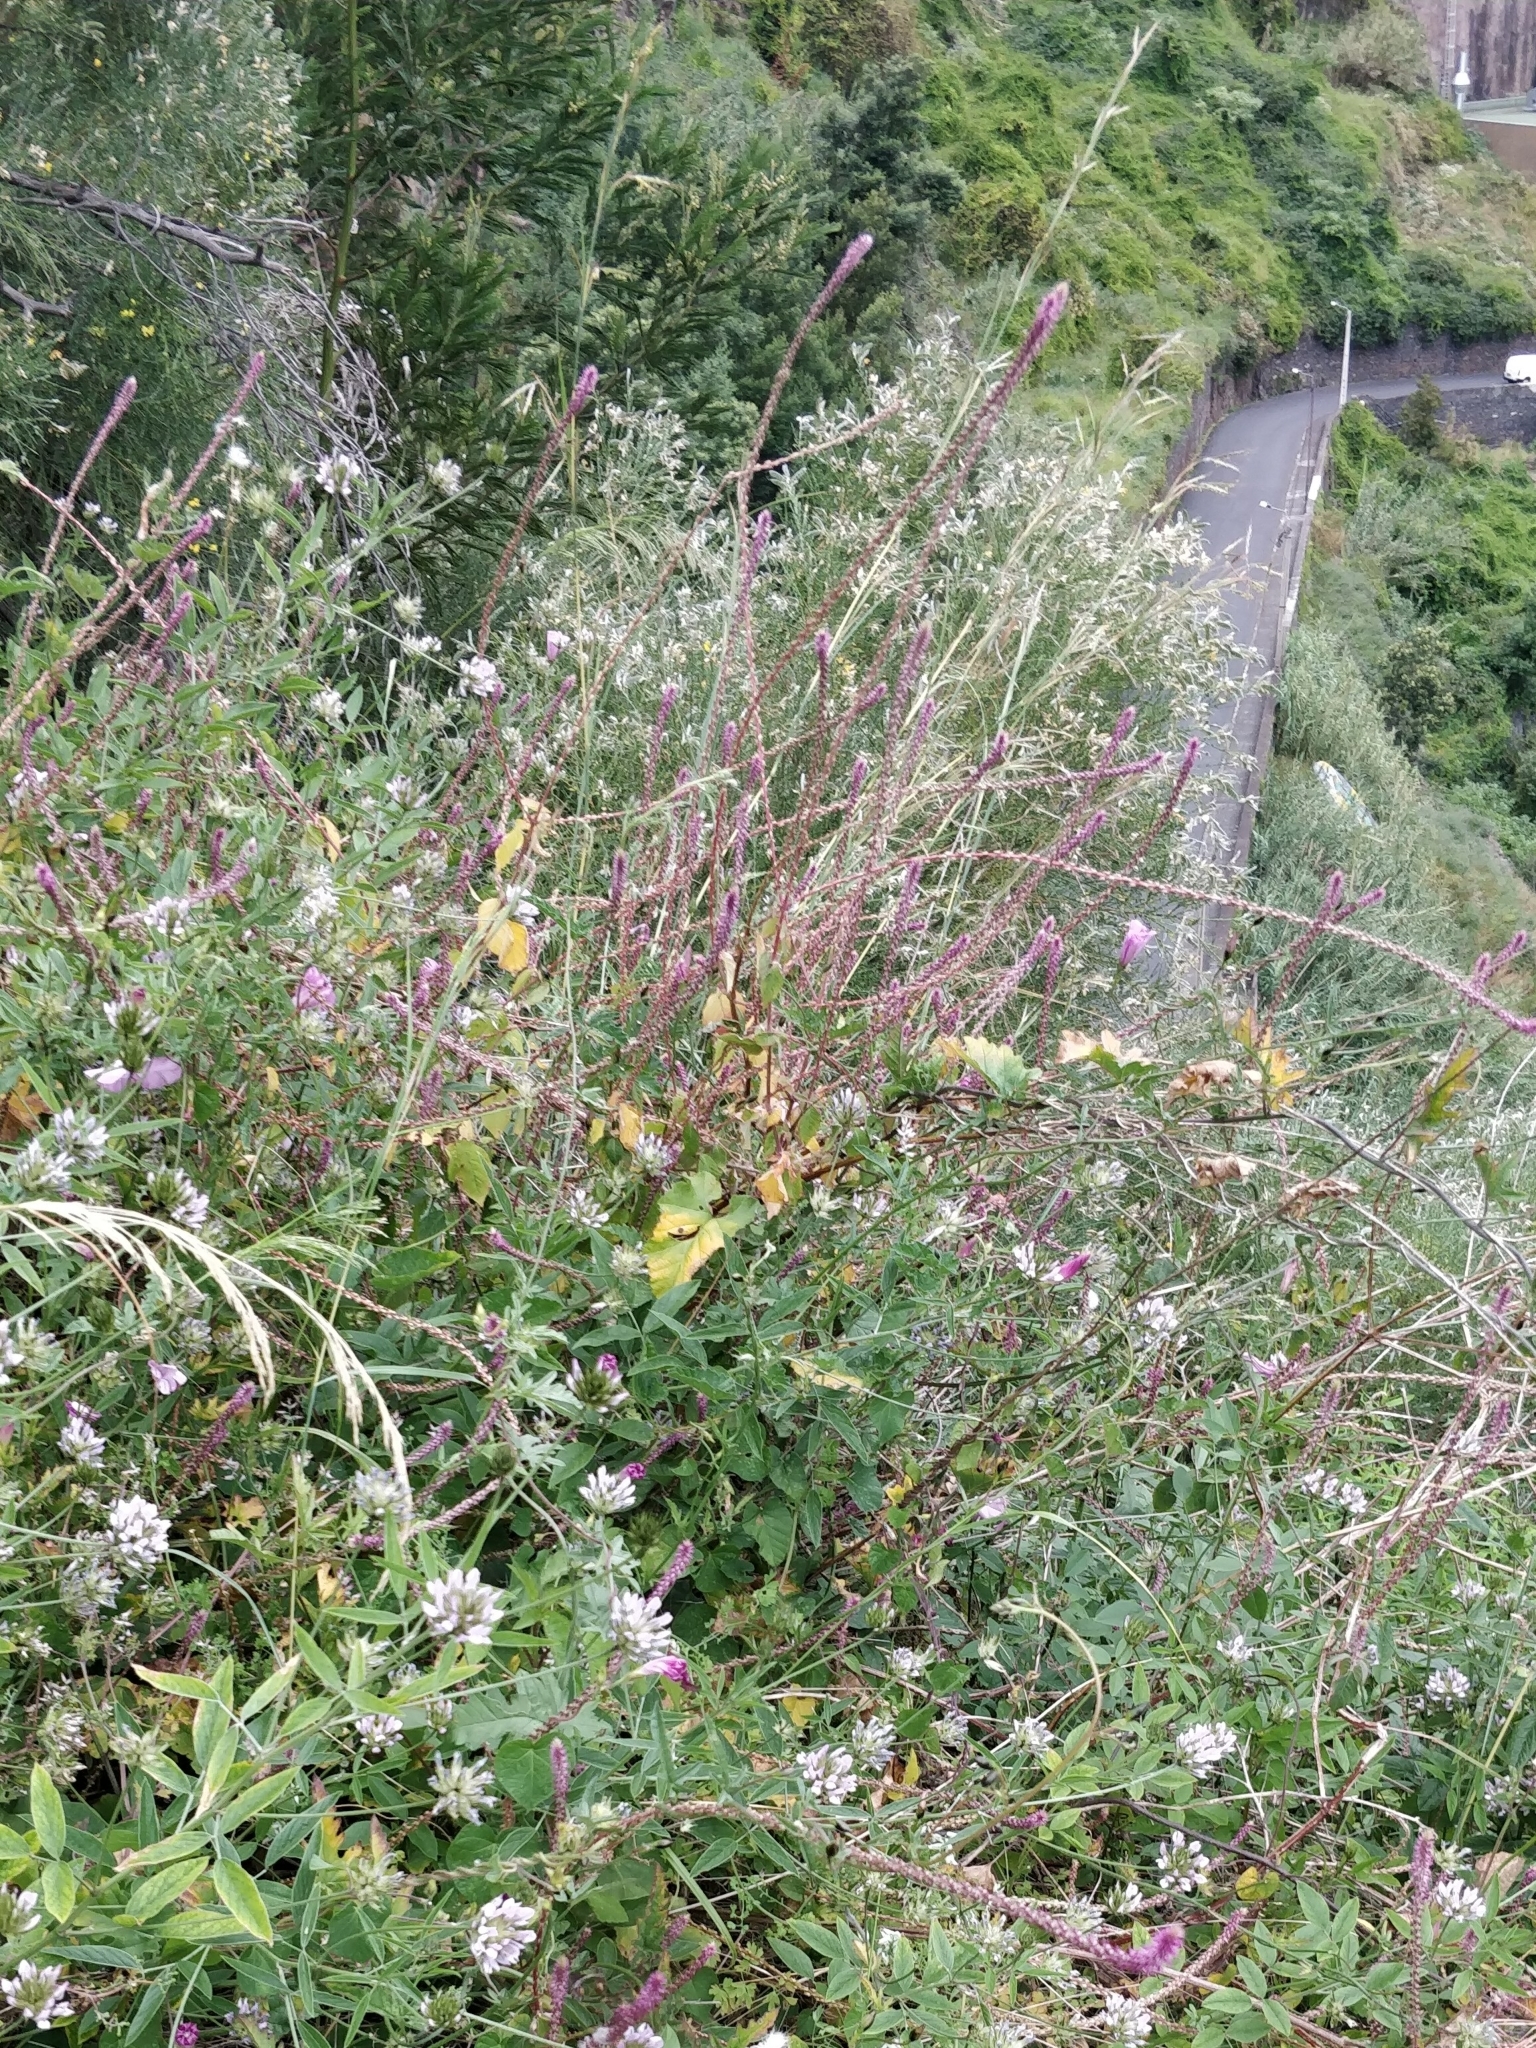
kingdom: Plantae
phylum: Tracheophyta
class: Magnoliopsida
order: Caryophyllales
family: Amaranthaceae
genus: Achyranthes
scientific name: Achyranthes aspera
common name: Devil's horsewhip
